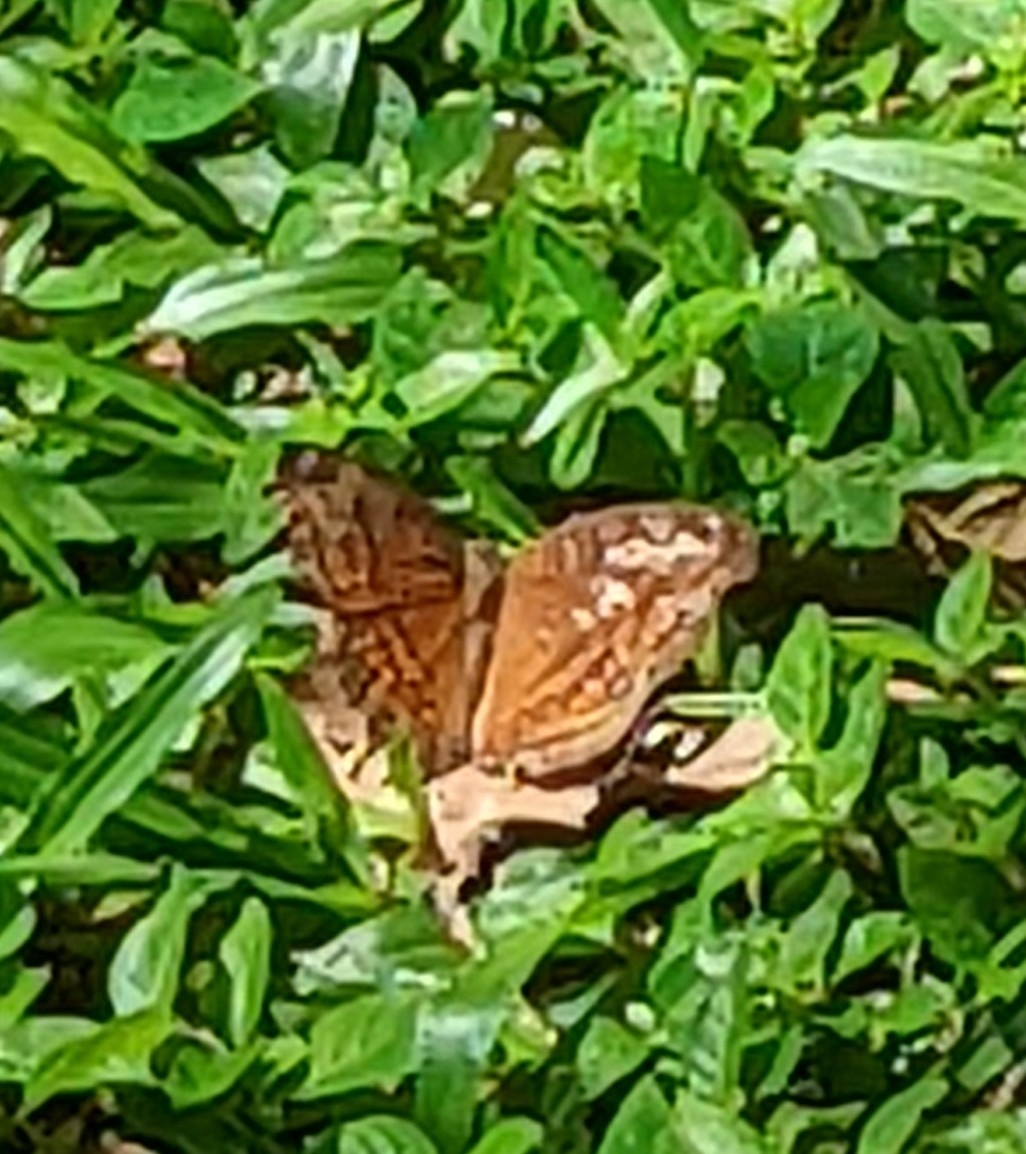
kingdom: Animalia
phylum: Arthropoda
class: Insecta
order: Lepidoptera
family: Nymphalidae
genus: Junonia
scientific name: Junonia hedonia
